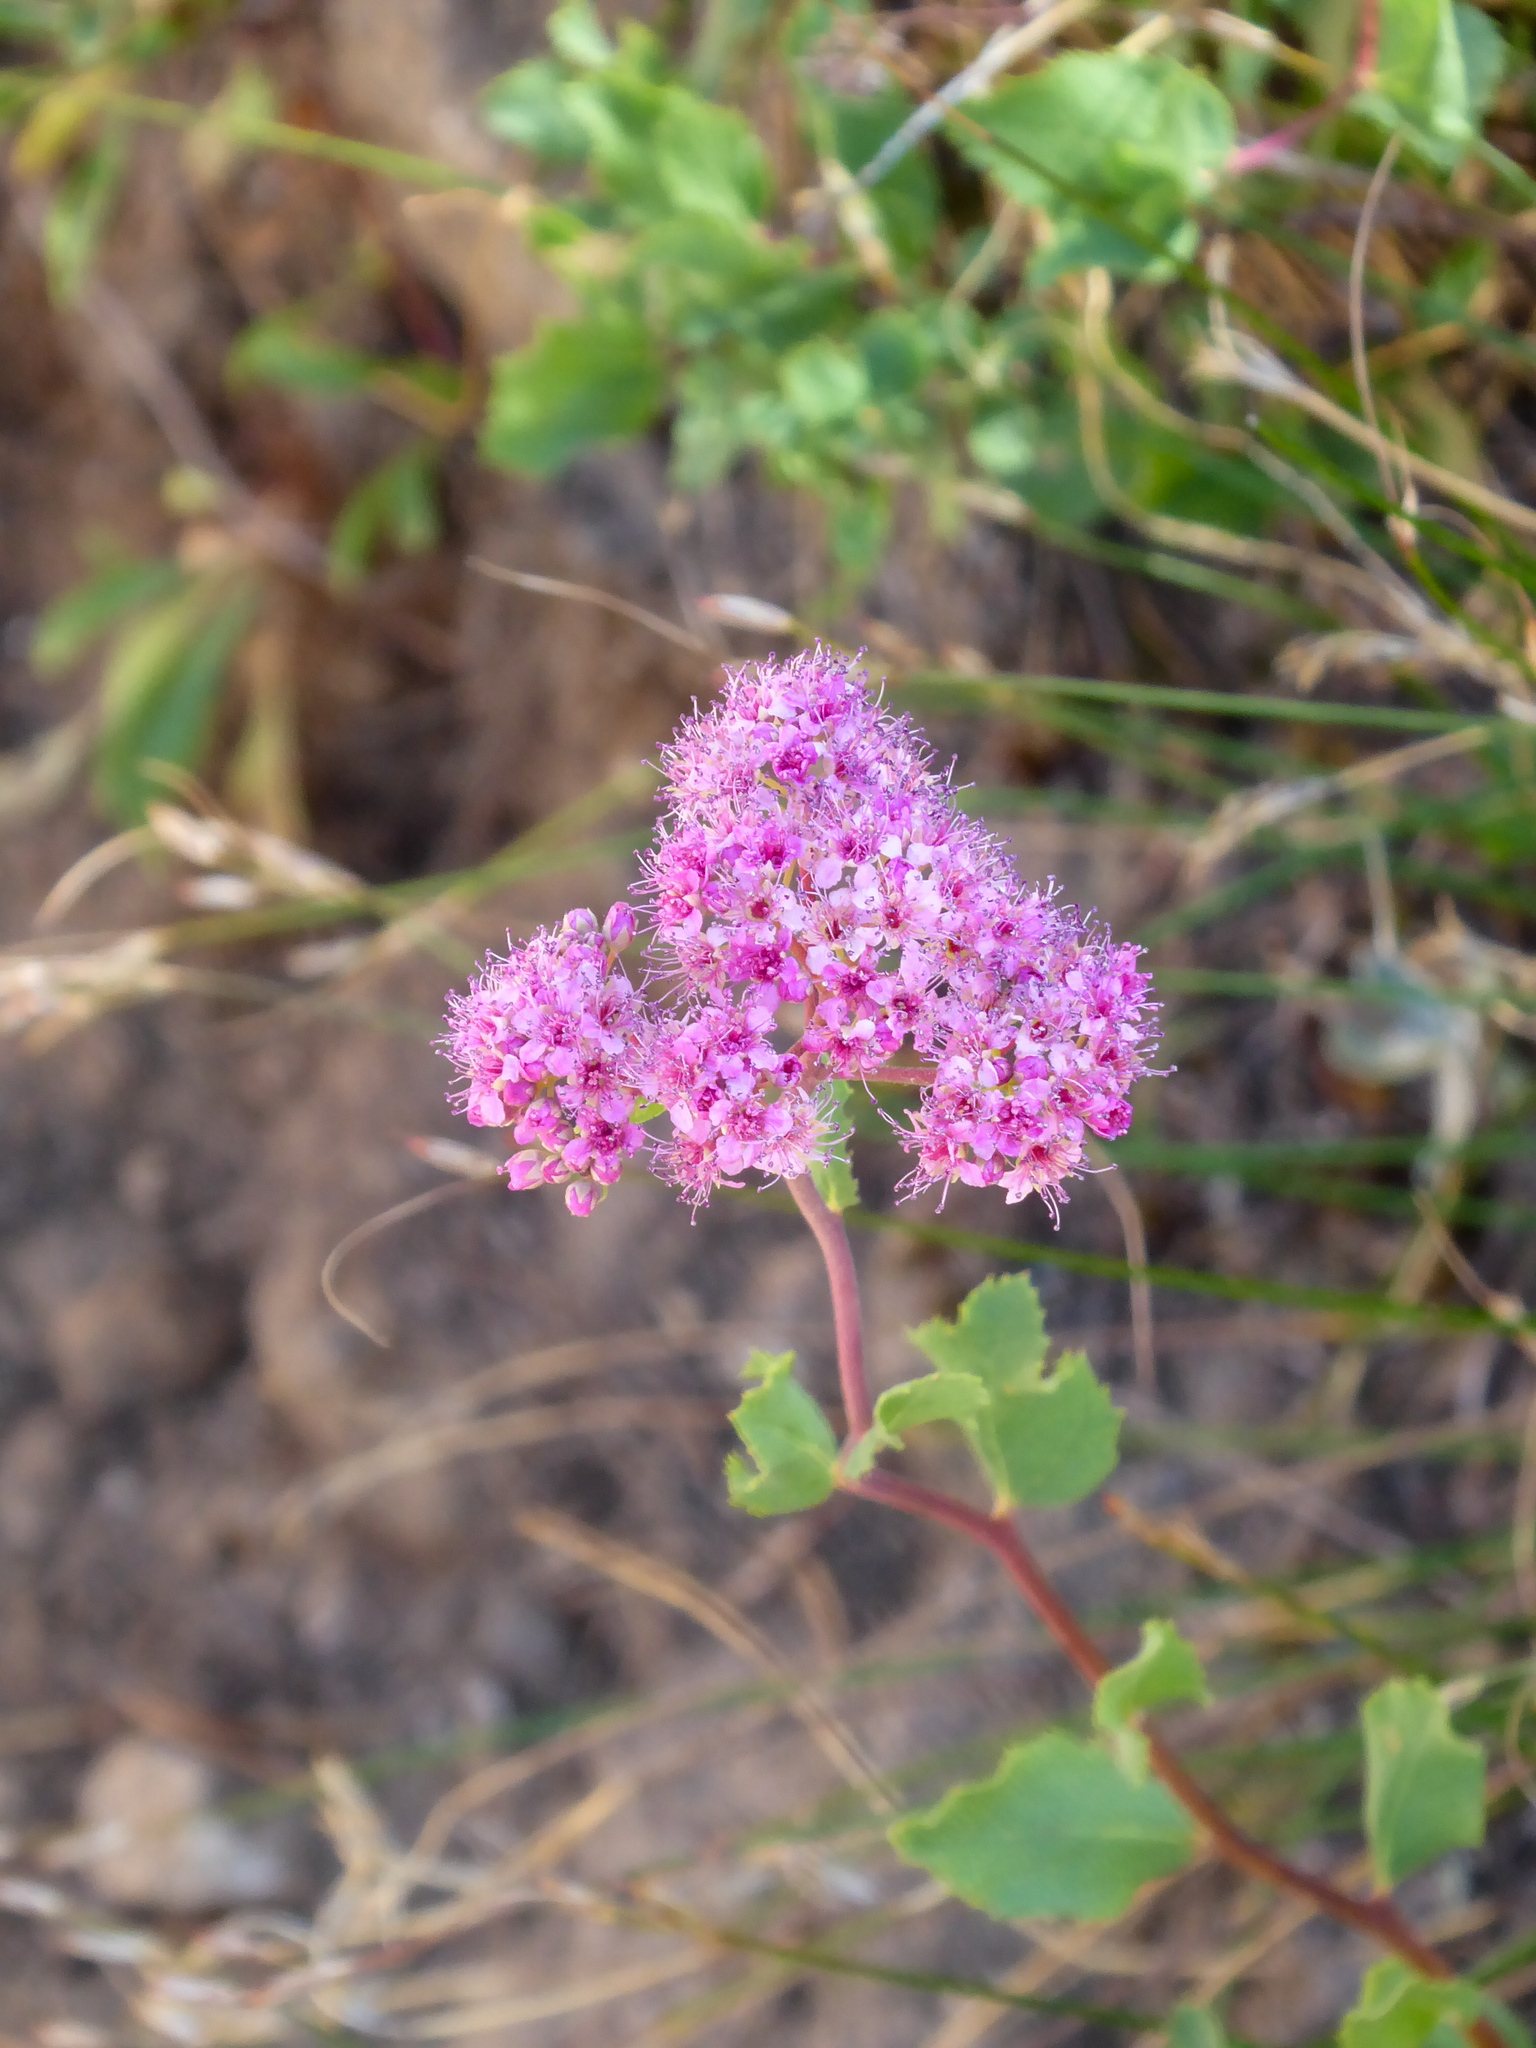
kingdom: Plantae
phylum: Tracheophyta
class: Magnoliopsida
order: Rosales
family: Rosaceae
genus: Spiraea
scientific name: Spiraea splendens
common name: Subalpine meadowsweet
